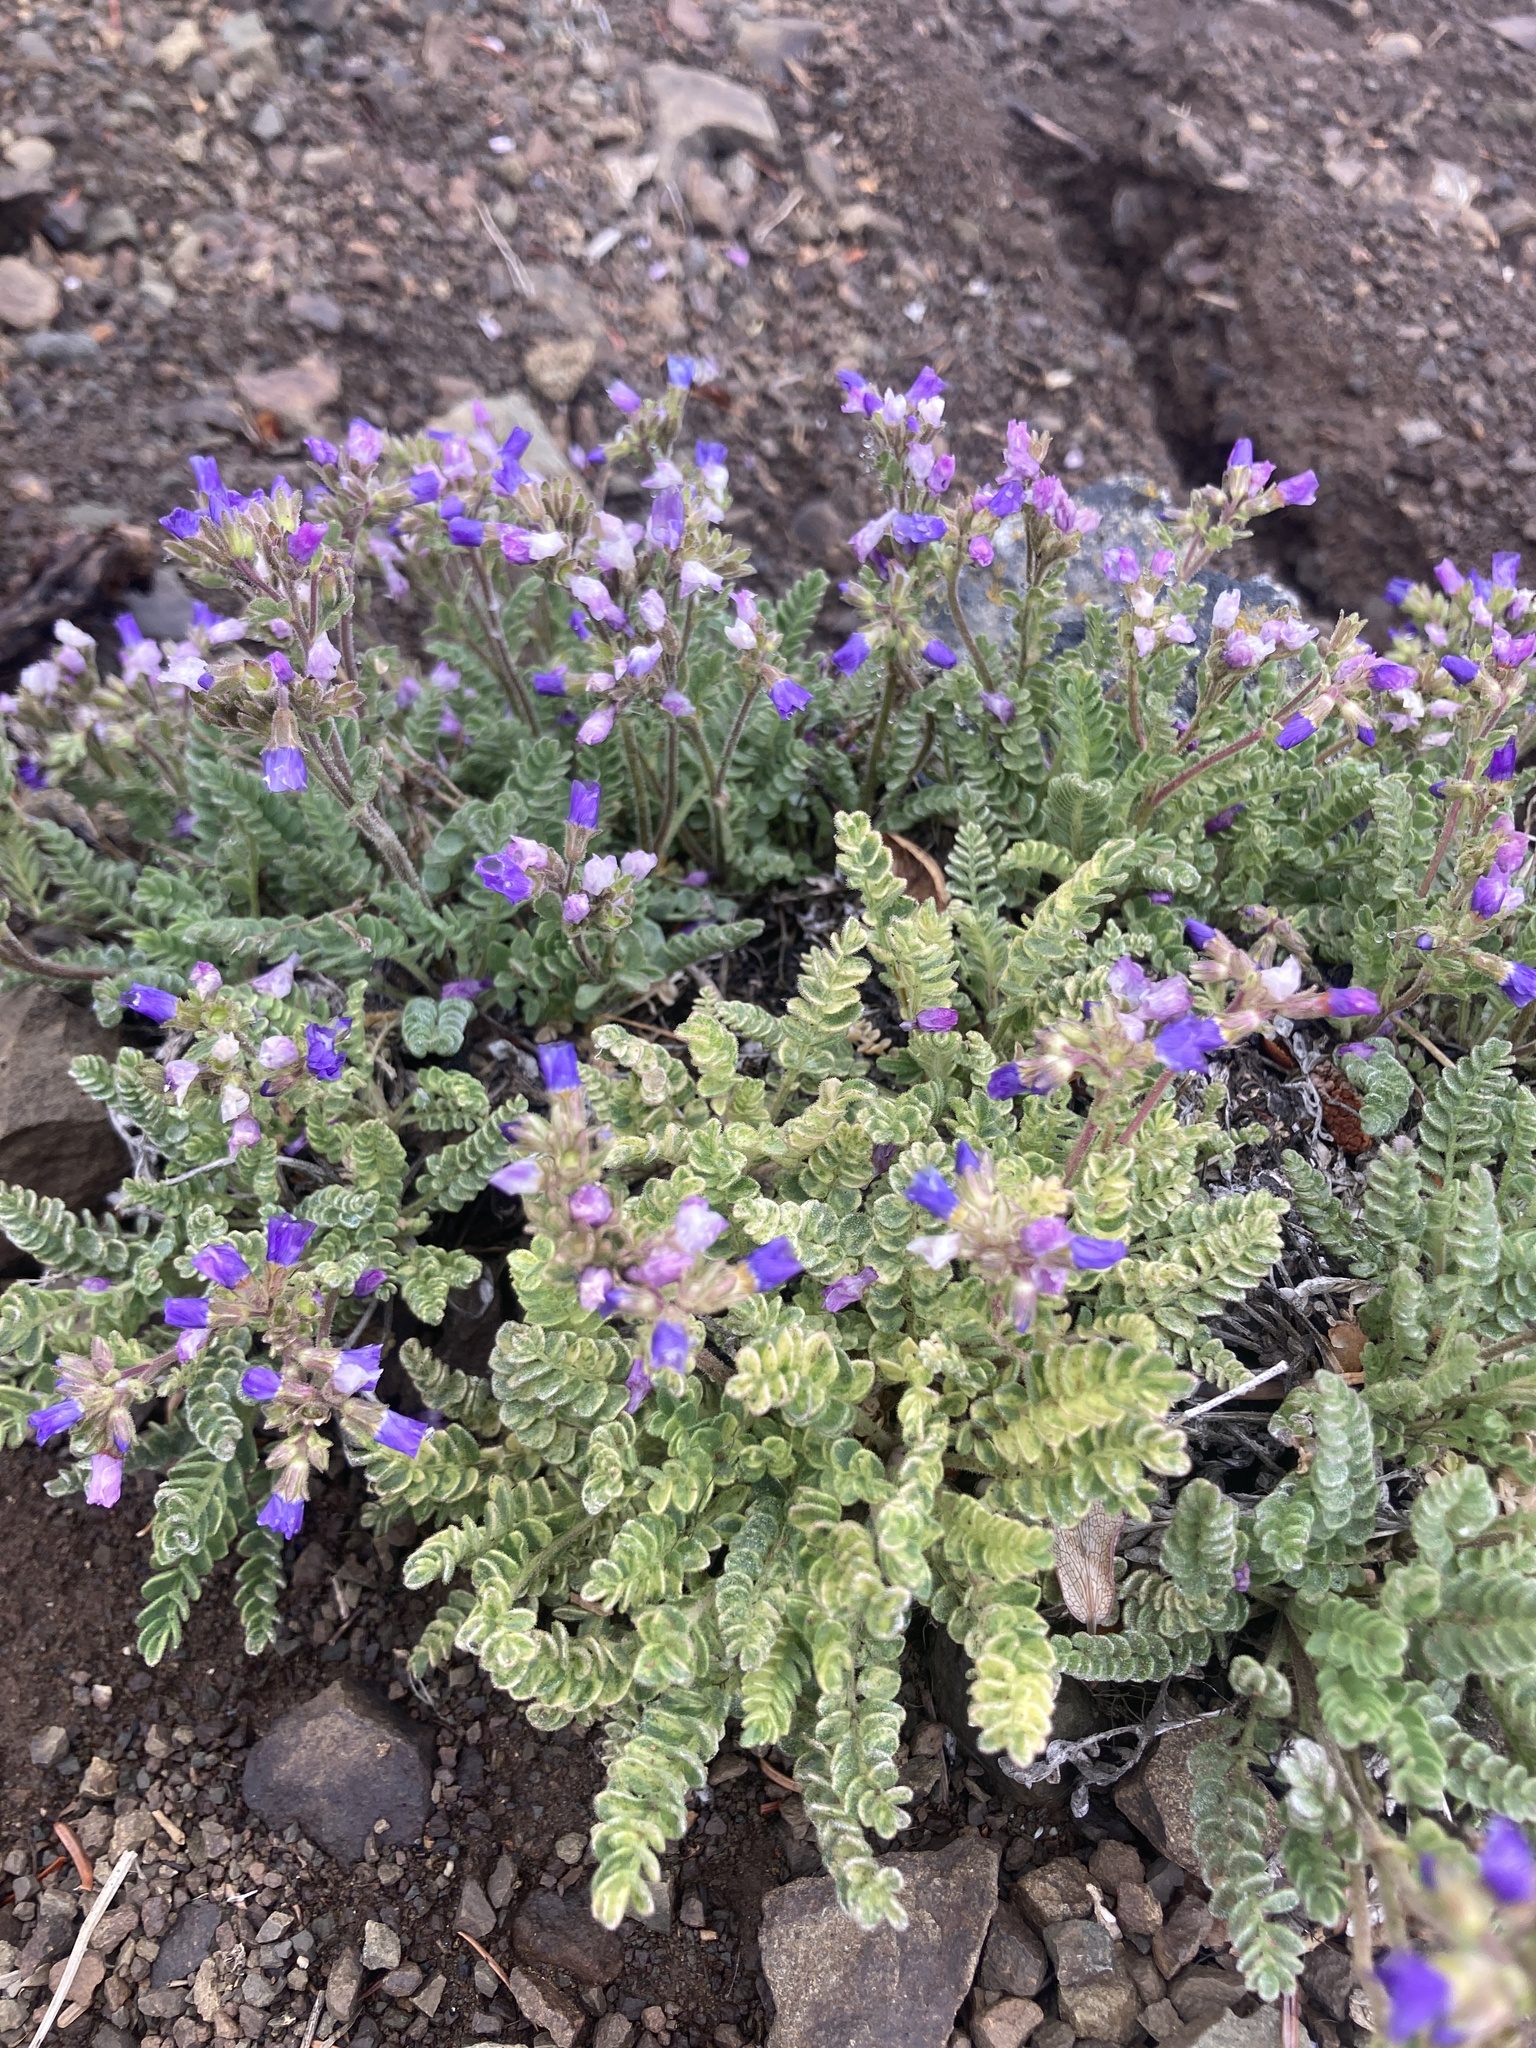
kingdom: Plantae
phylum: Tracheophyta
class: Magnoliopsida
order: Ericales
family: Polemoniaceae
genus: Polemonium
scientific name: Polemonium pulcherrimum
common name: Short jacob's-ladder
